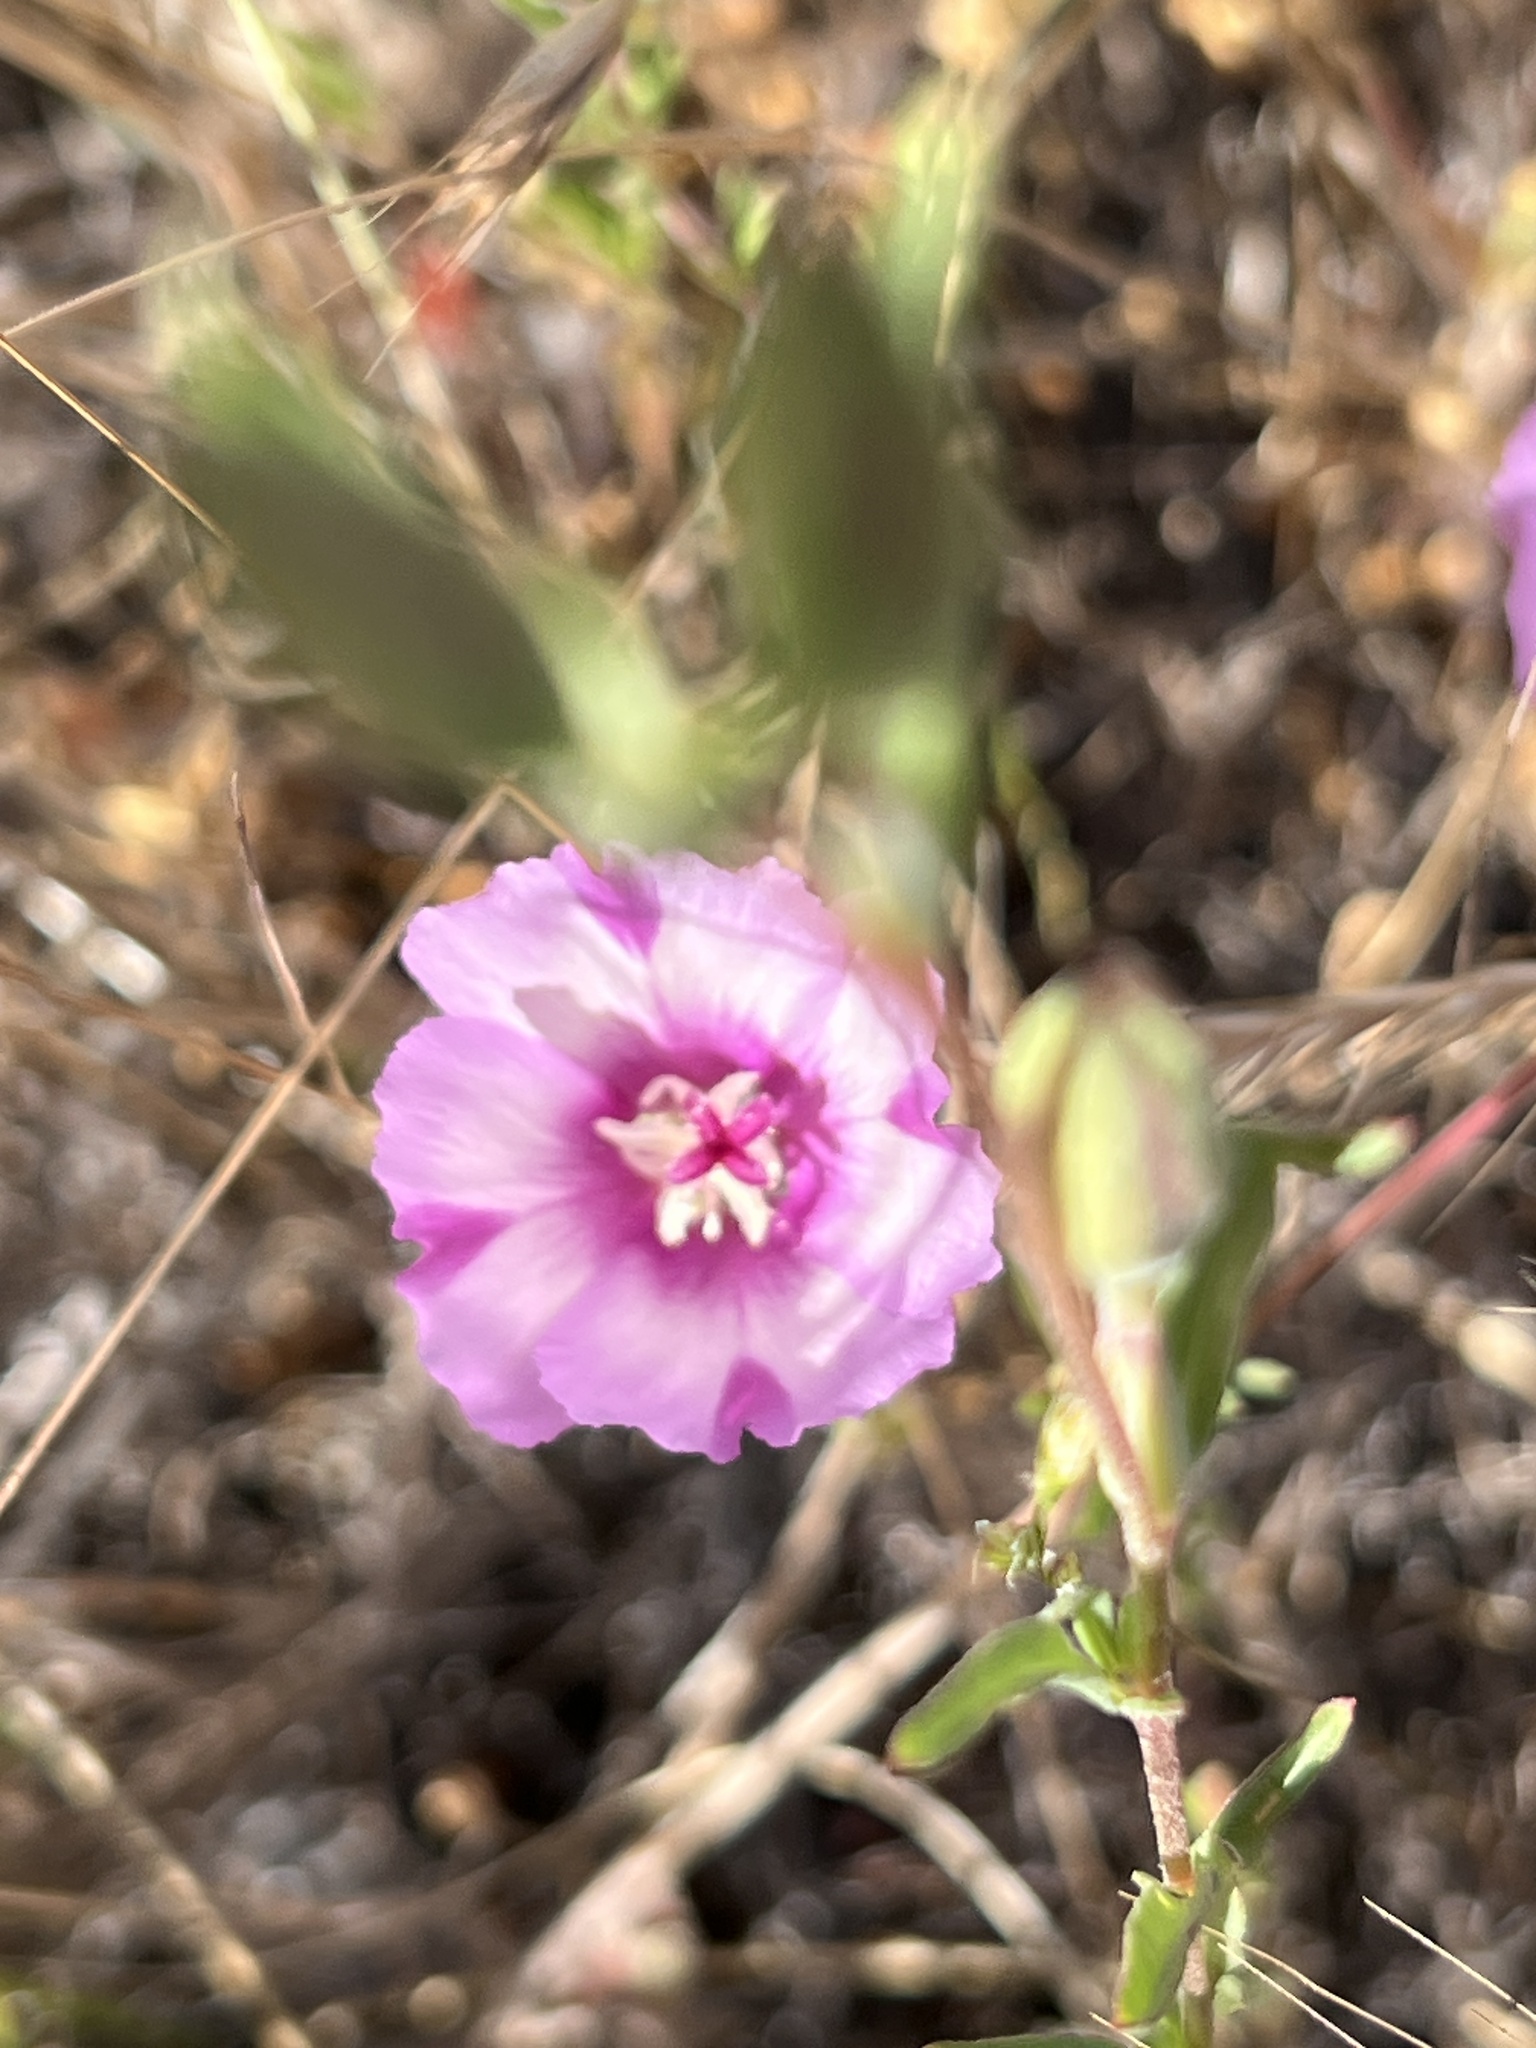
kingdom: Plantae
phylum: Tracheophyta
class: Magnoliopsida
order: Myrtales
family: Onagraceae
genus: Clarkia
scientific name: Clarkia purpurea
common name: Purple clarkia
